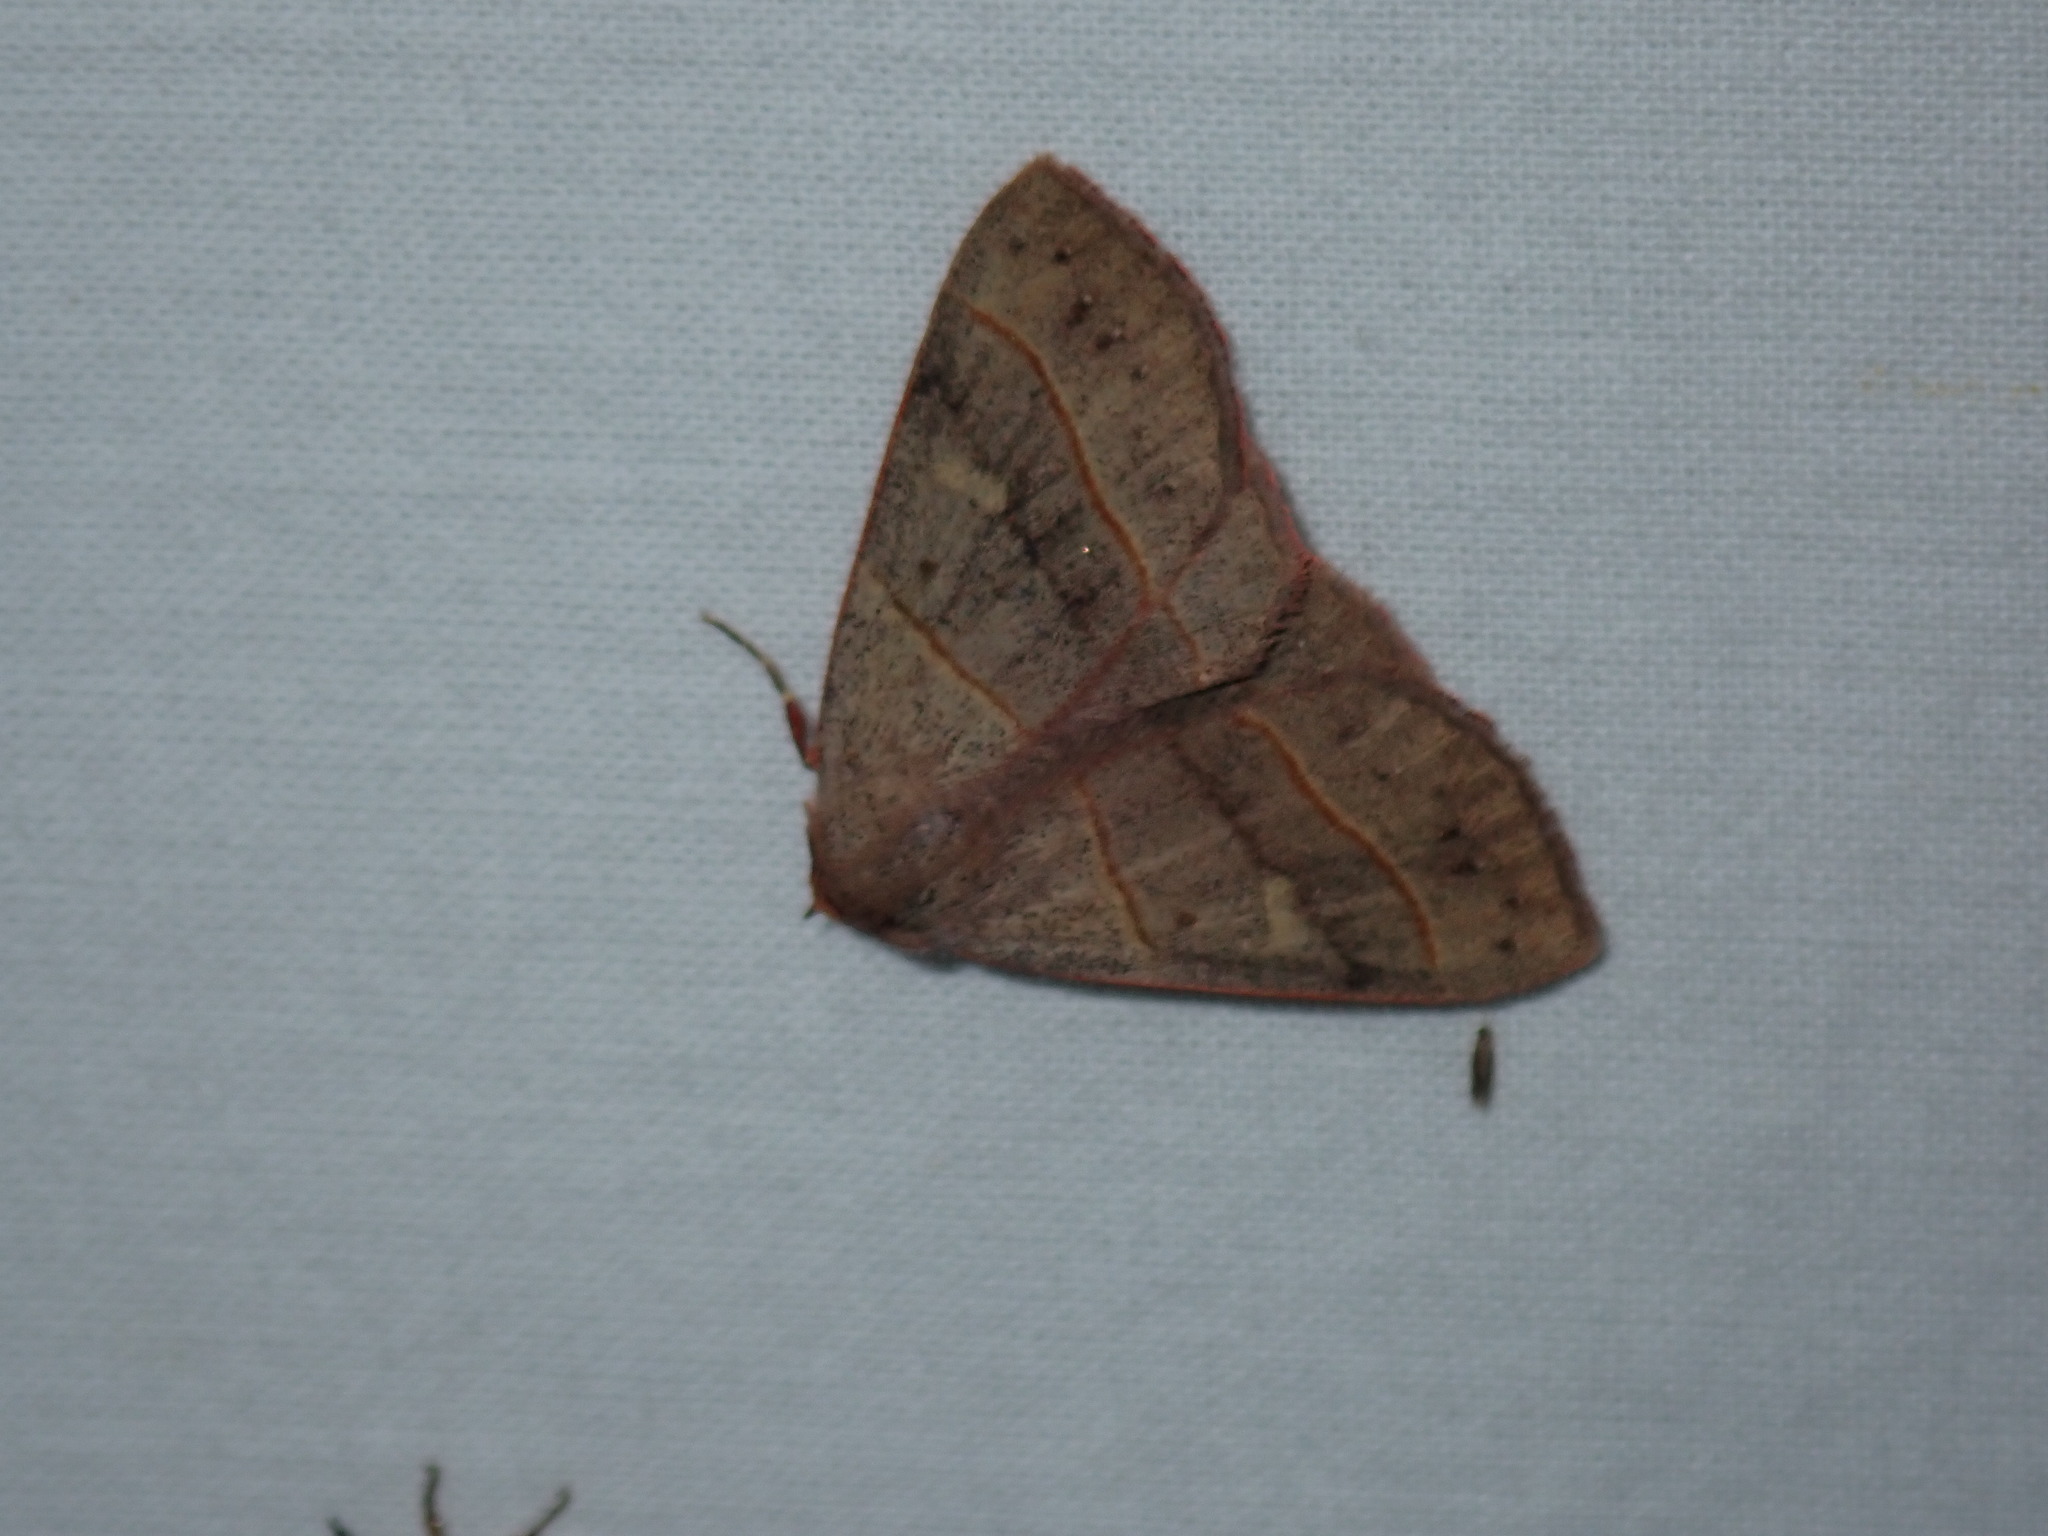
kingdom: Animalia
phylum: Arthropoda
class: Insecta
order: Lepidoptera
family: Erebidae
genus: Panopoda
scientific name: Panopoda rufimargo
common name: Red-lined panopoda moth
